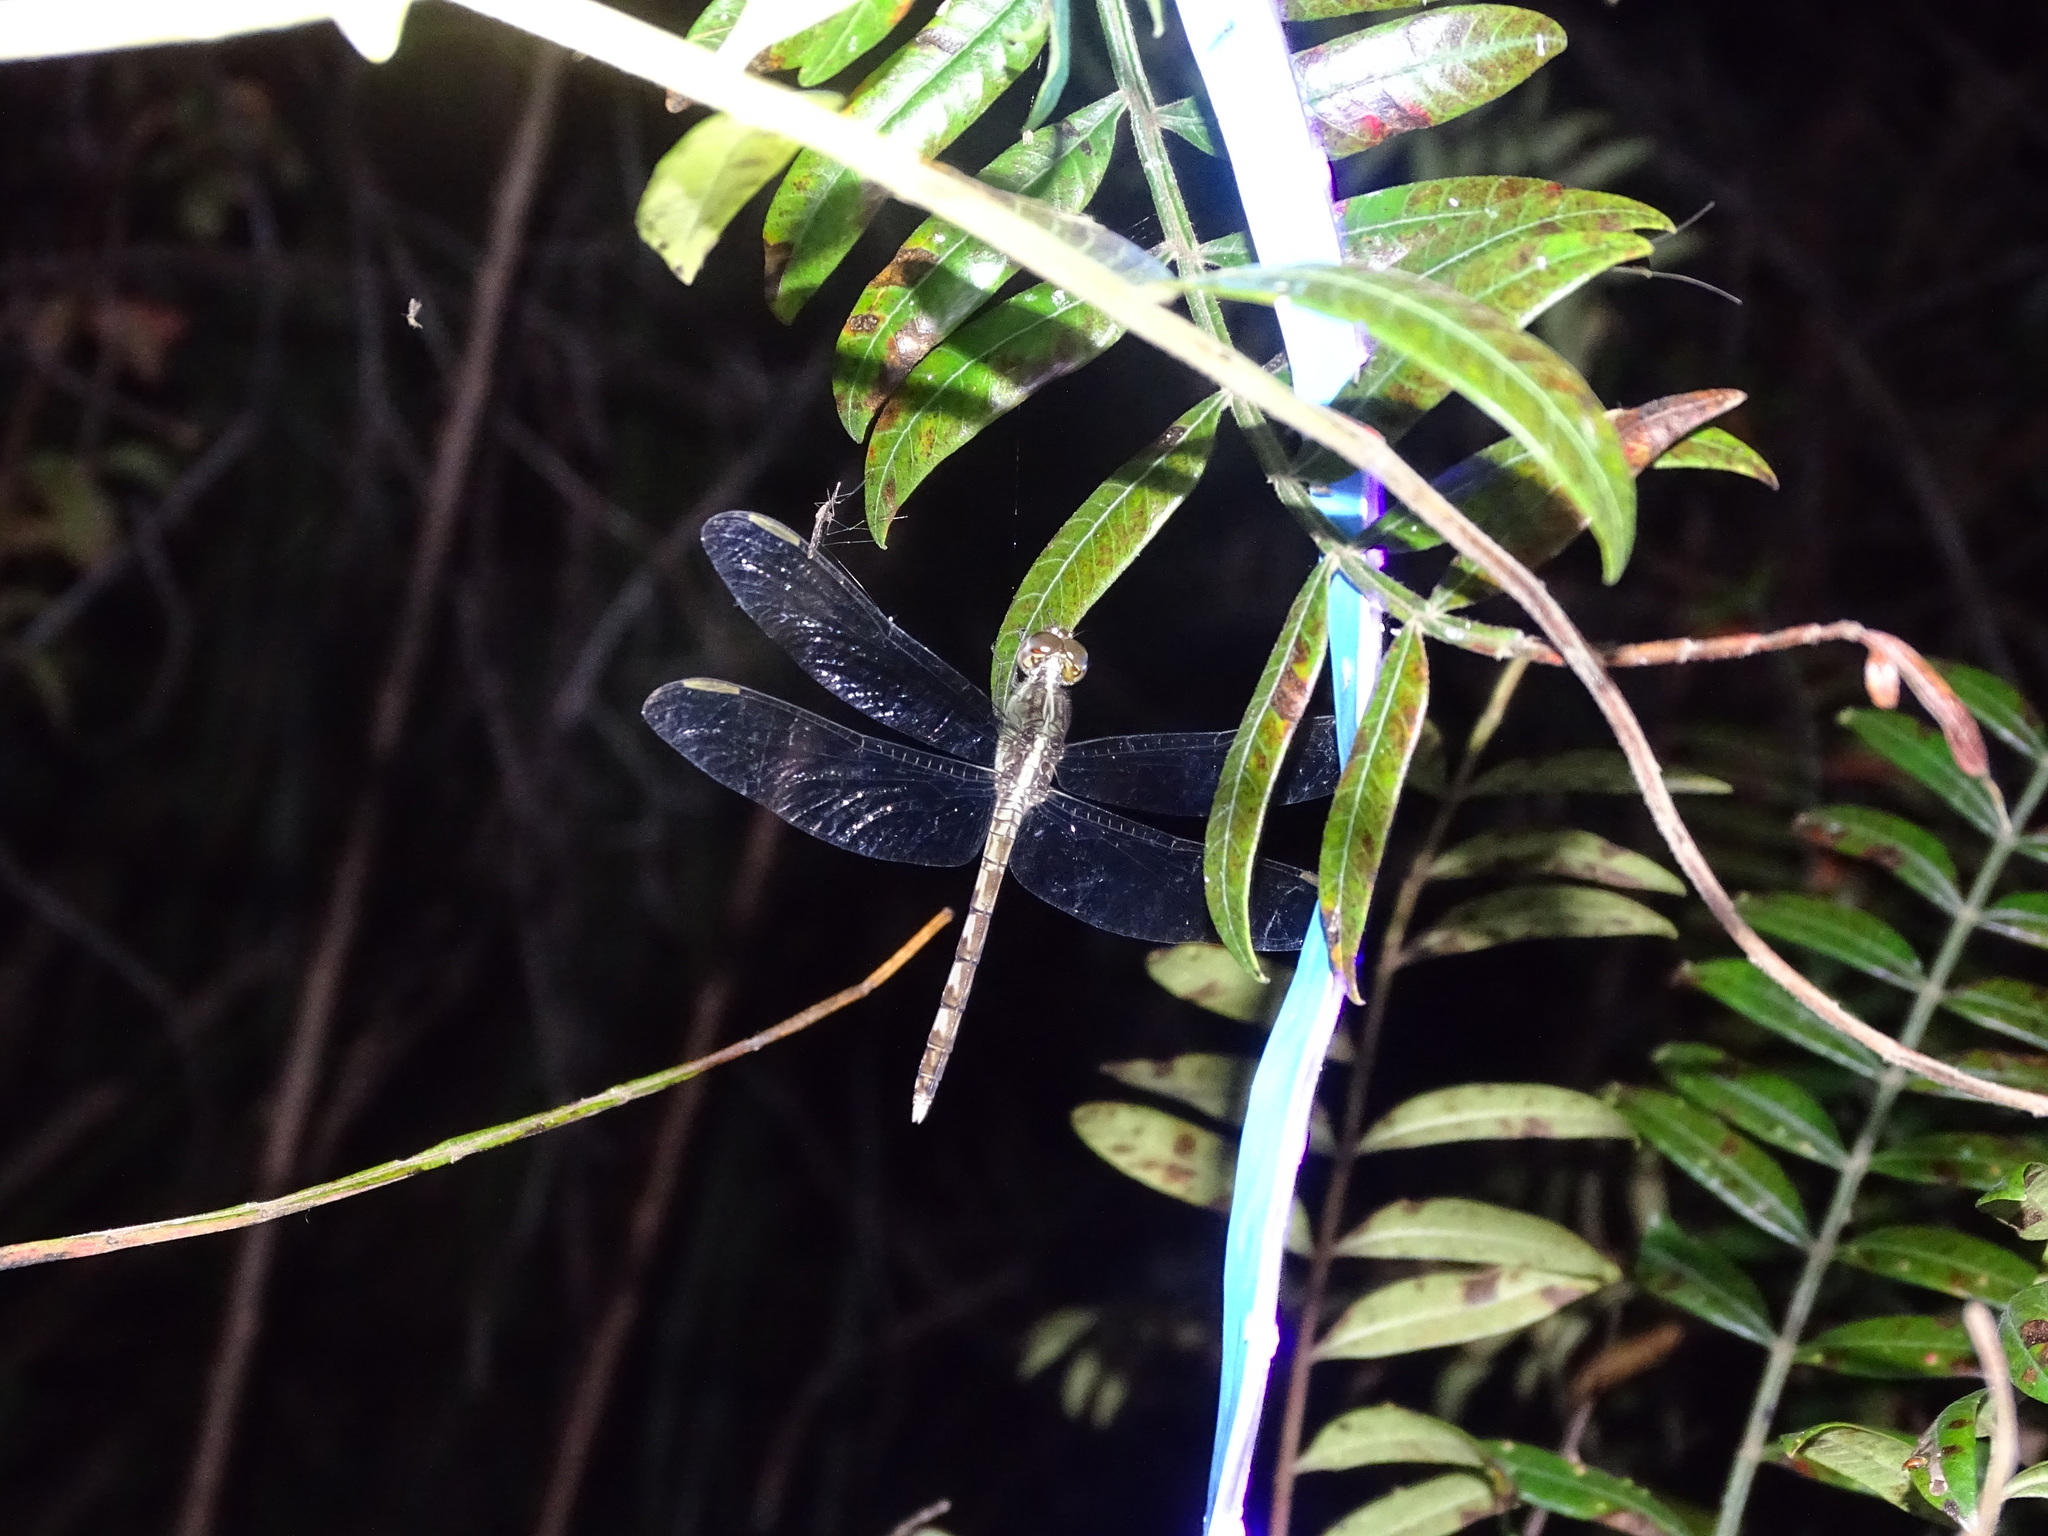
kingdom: Animalia
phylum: Arthropoda
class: Insecta
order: Odonata
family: Libellulidae
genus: Erythrodiplax
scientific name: Erythrodiplax umbrata
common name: Band-winged dragonlet
